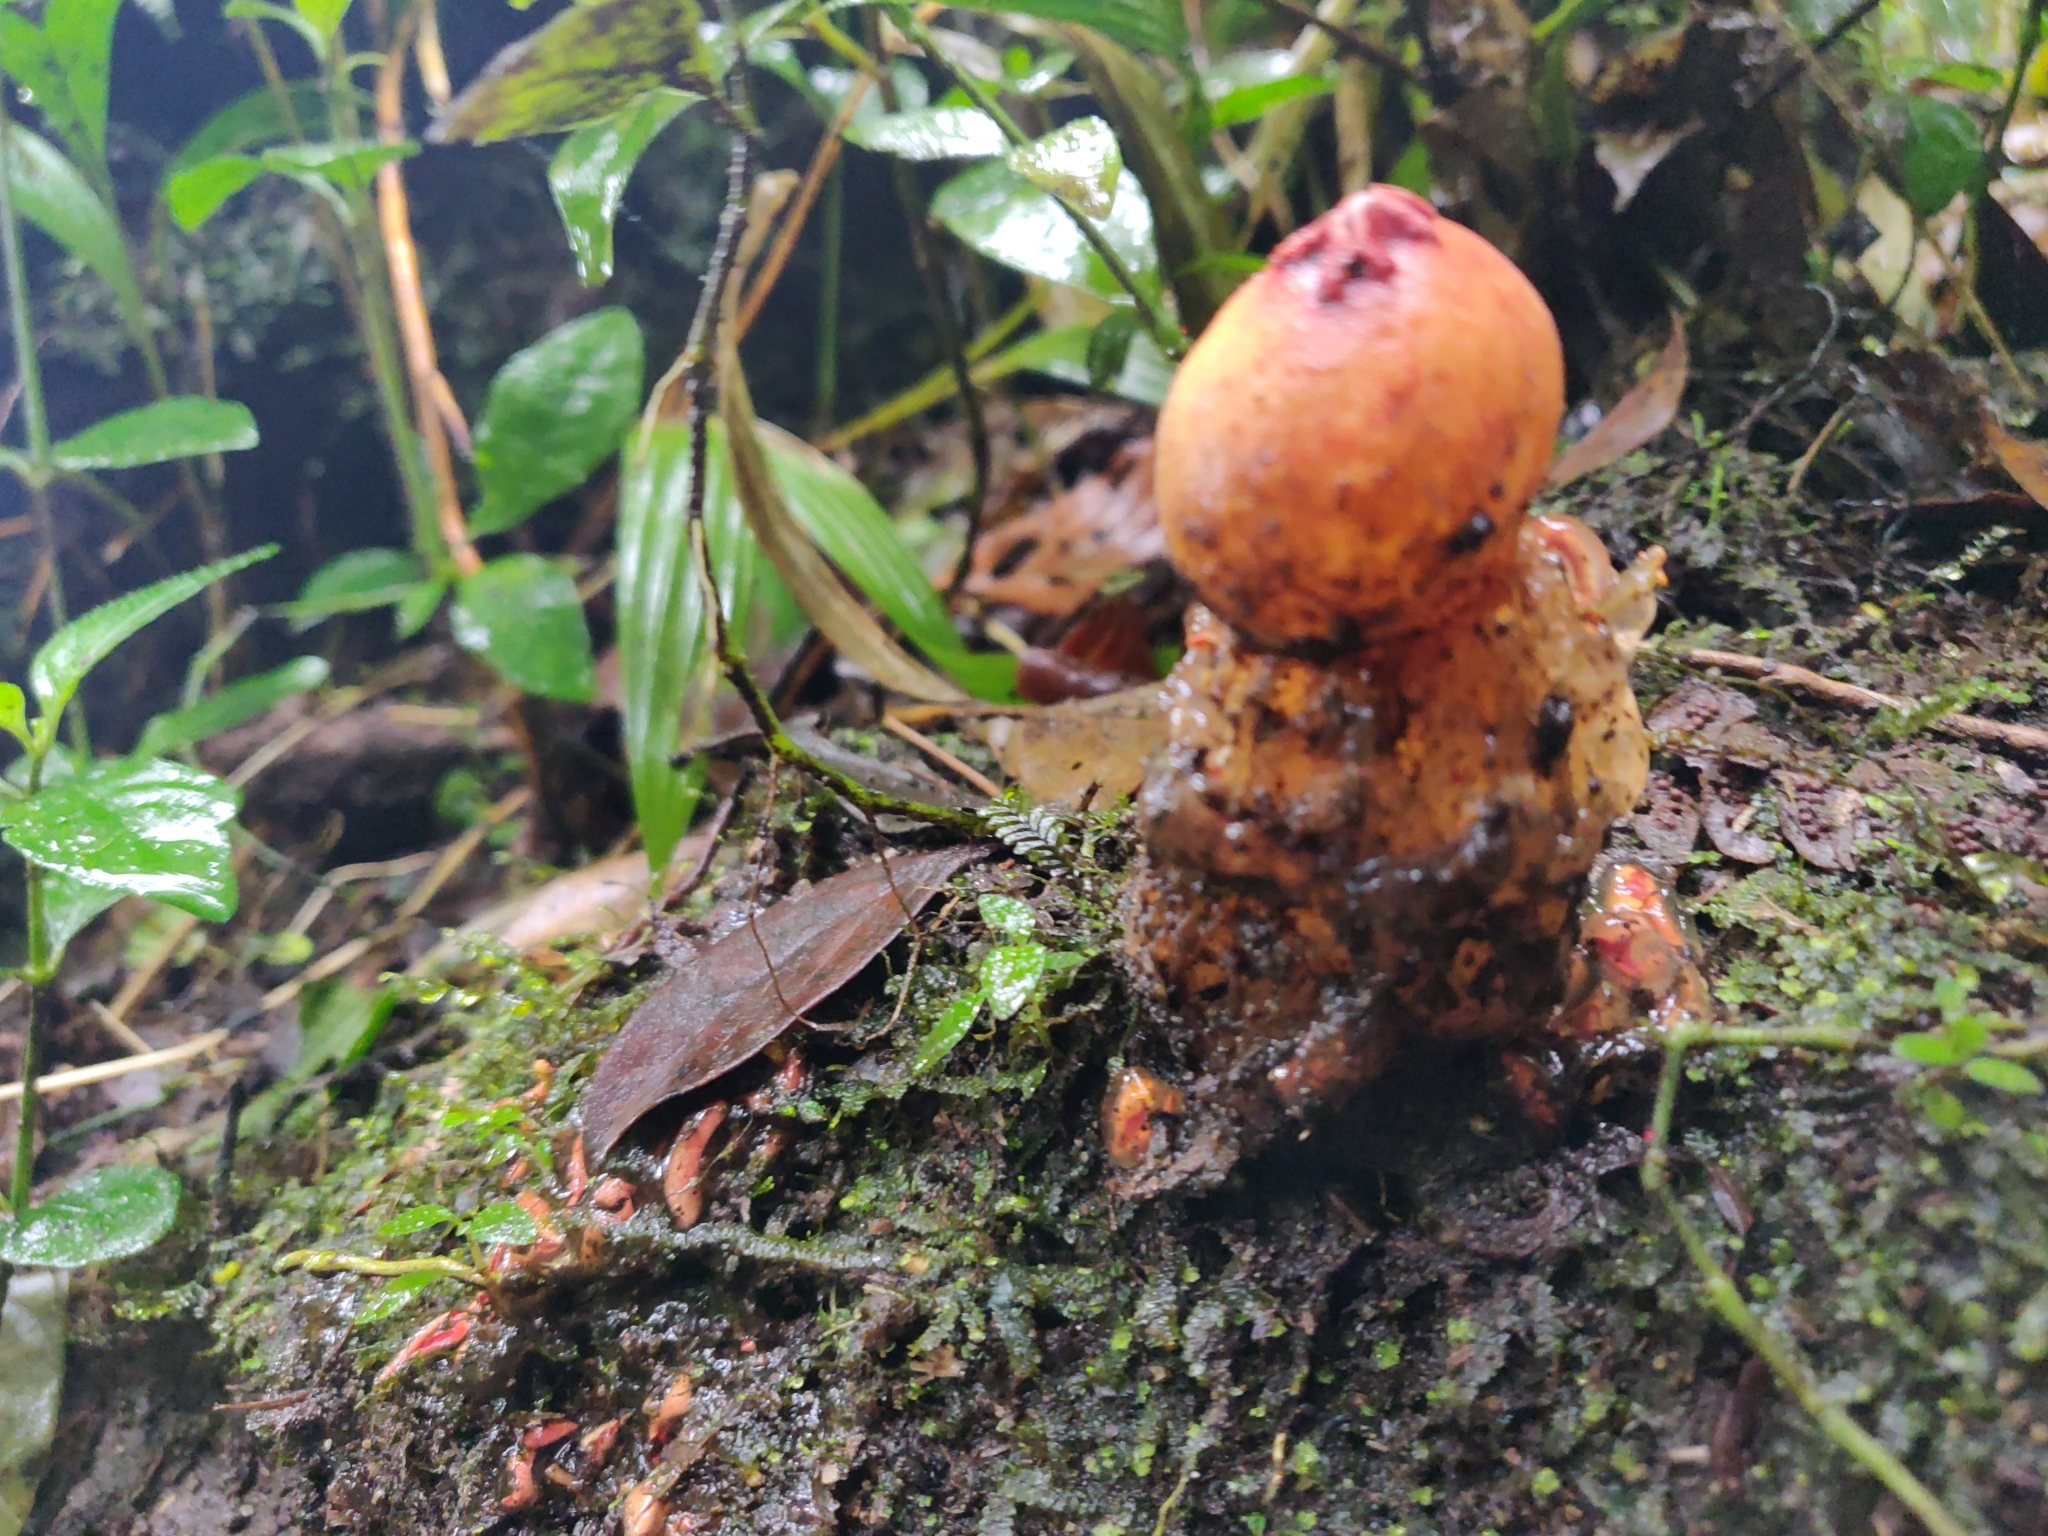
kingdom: Fungi
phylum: Basidiomycota
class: Agaricomycetes
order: Boletales
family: Calostomataceae
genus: Calostoma
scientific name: Calostoma cinnabarinum
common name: Stalked puffball-in-aspic
